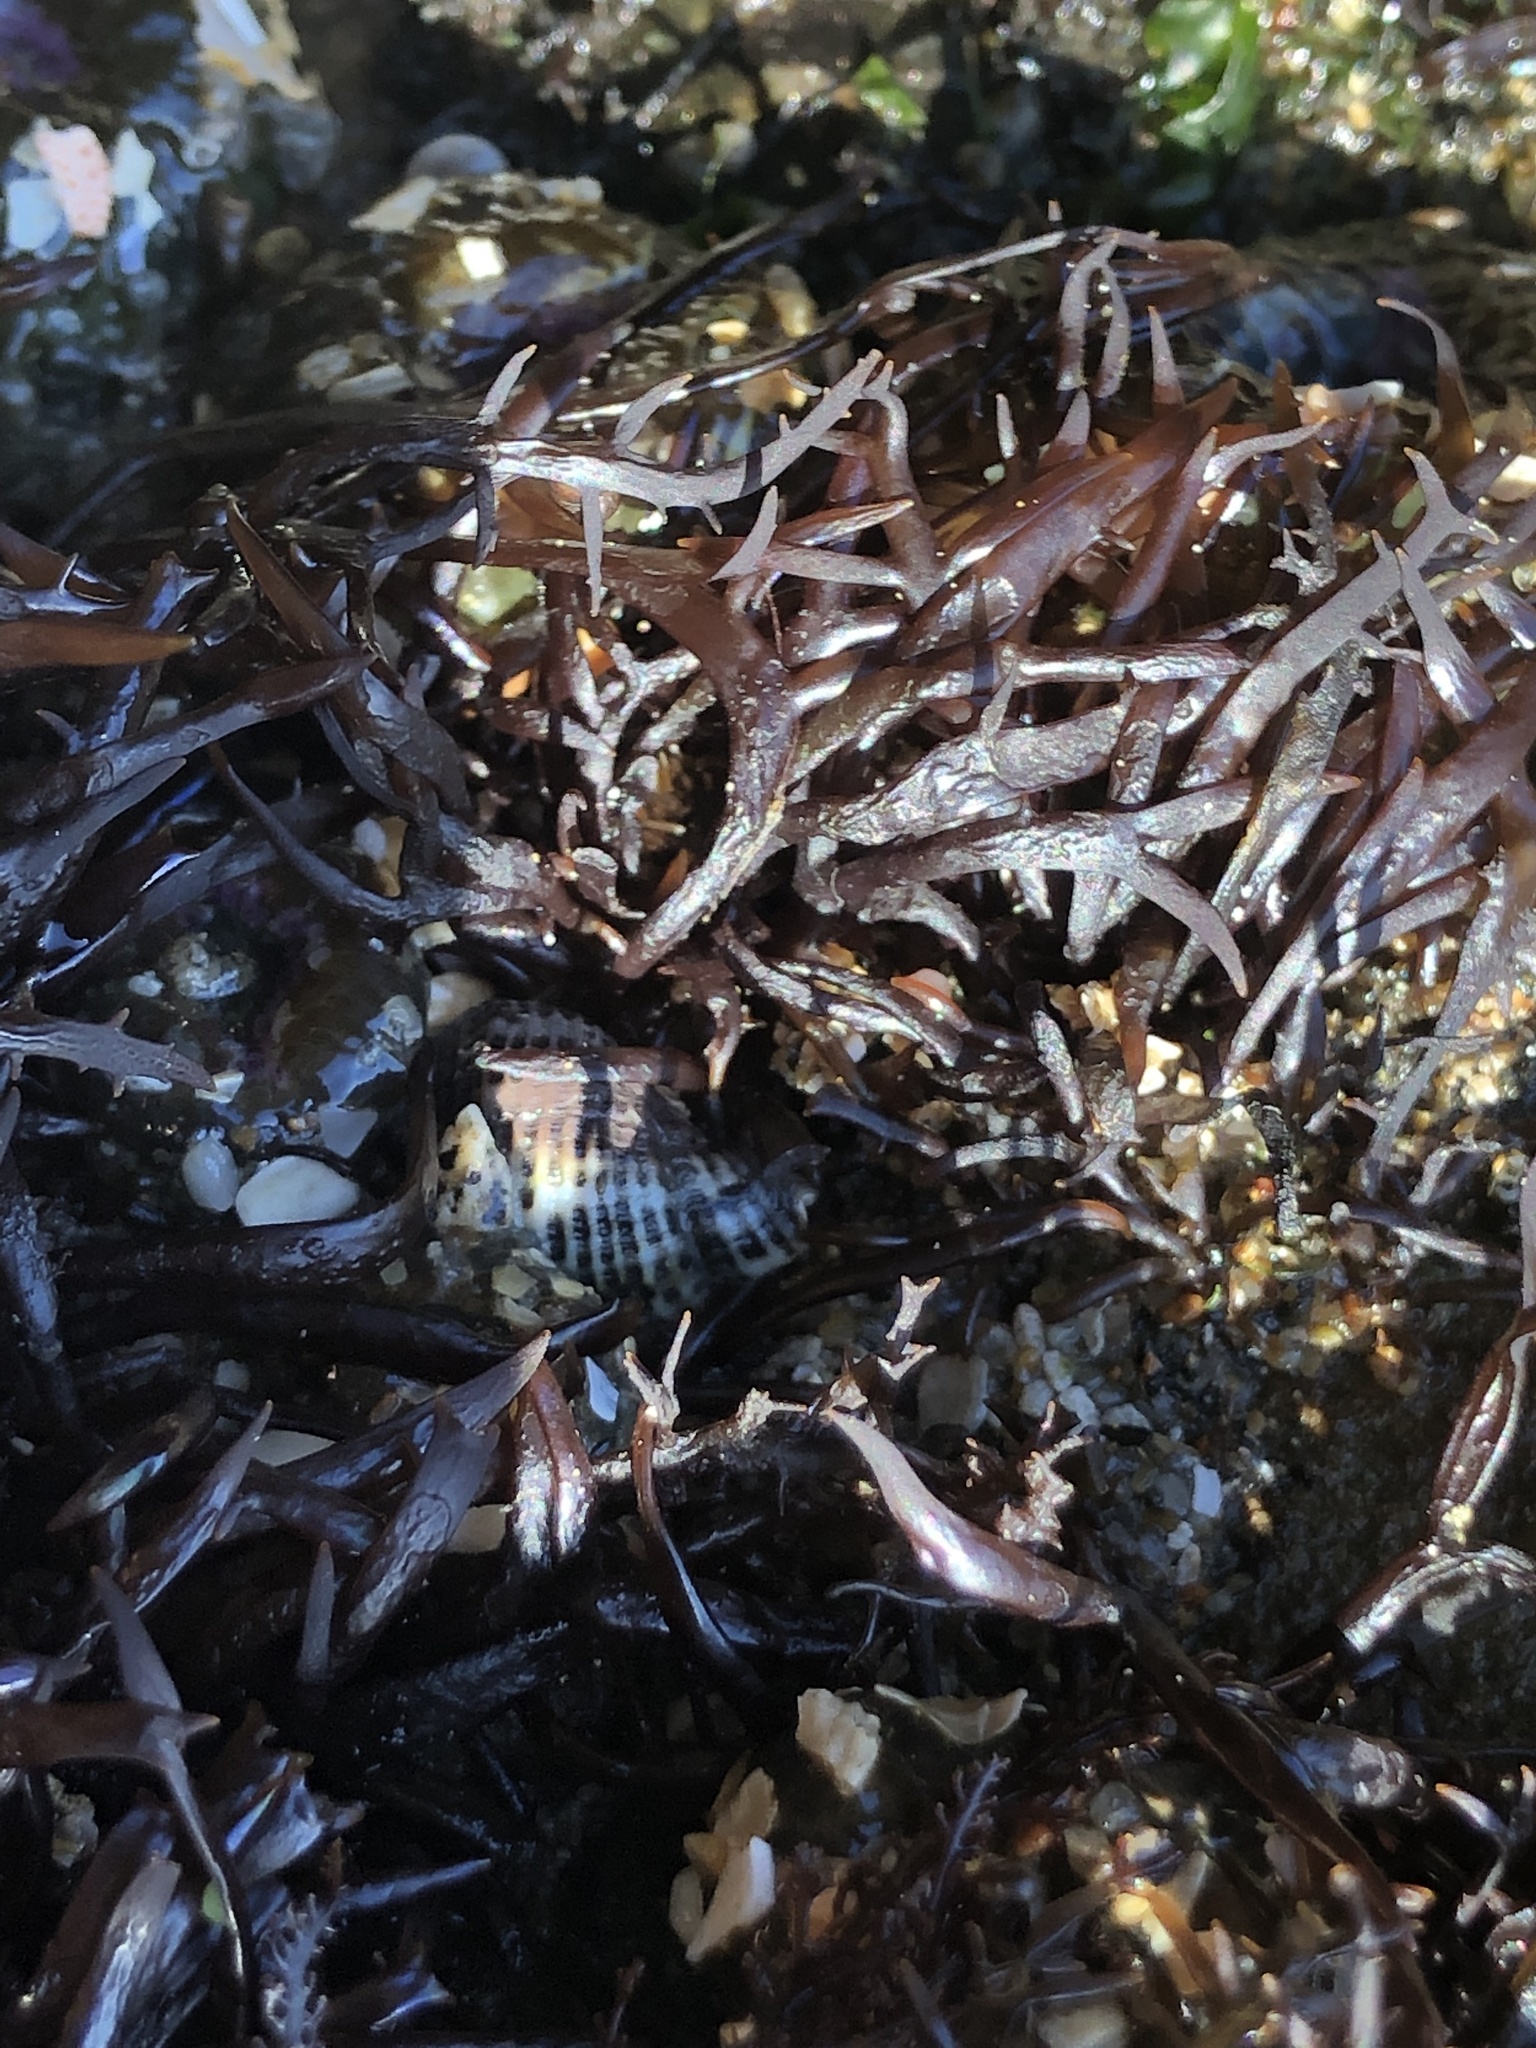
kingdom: Plantae
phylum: Rhodophyta
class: Florideophyceae
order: Gigartinales
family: Gigartinaceae
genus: Chondracanthus
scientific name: Chondracanthus canaliculatus
